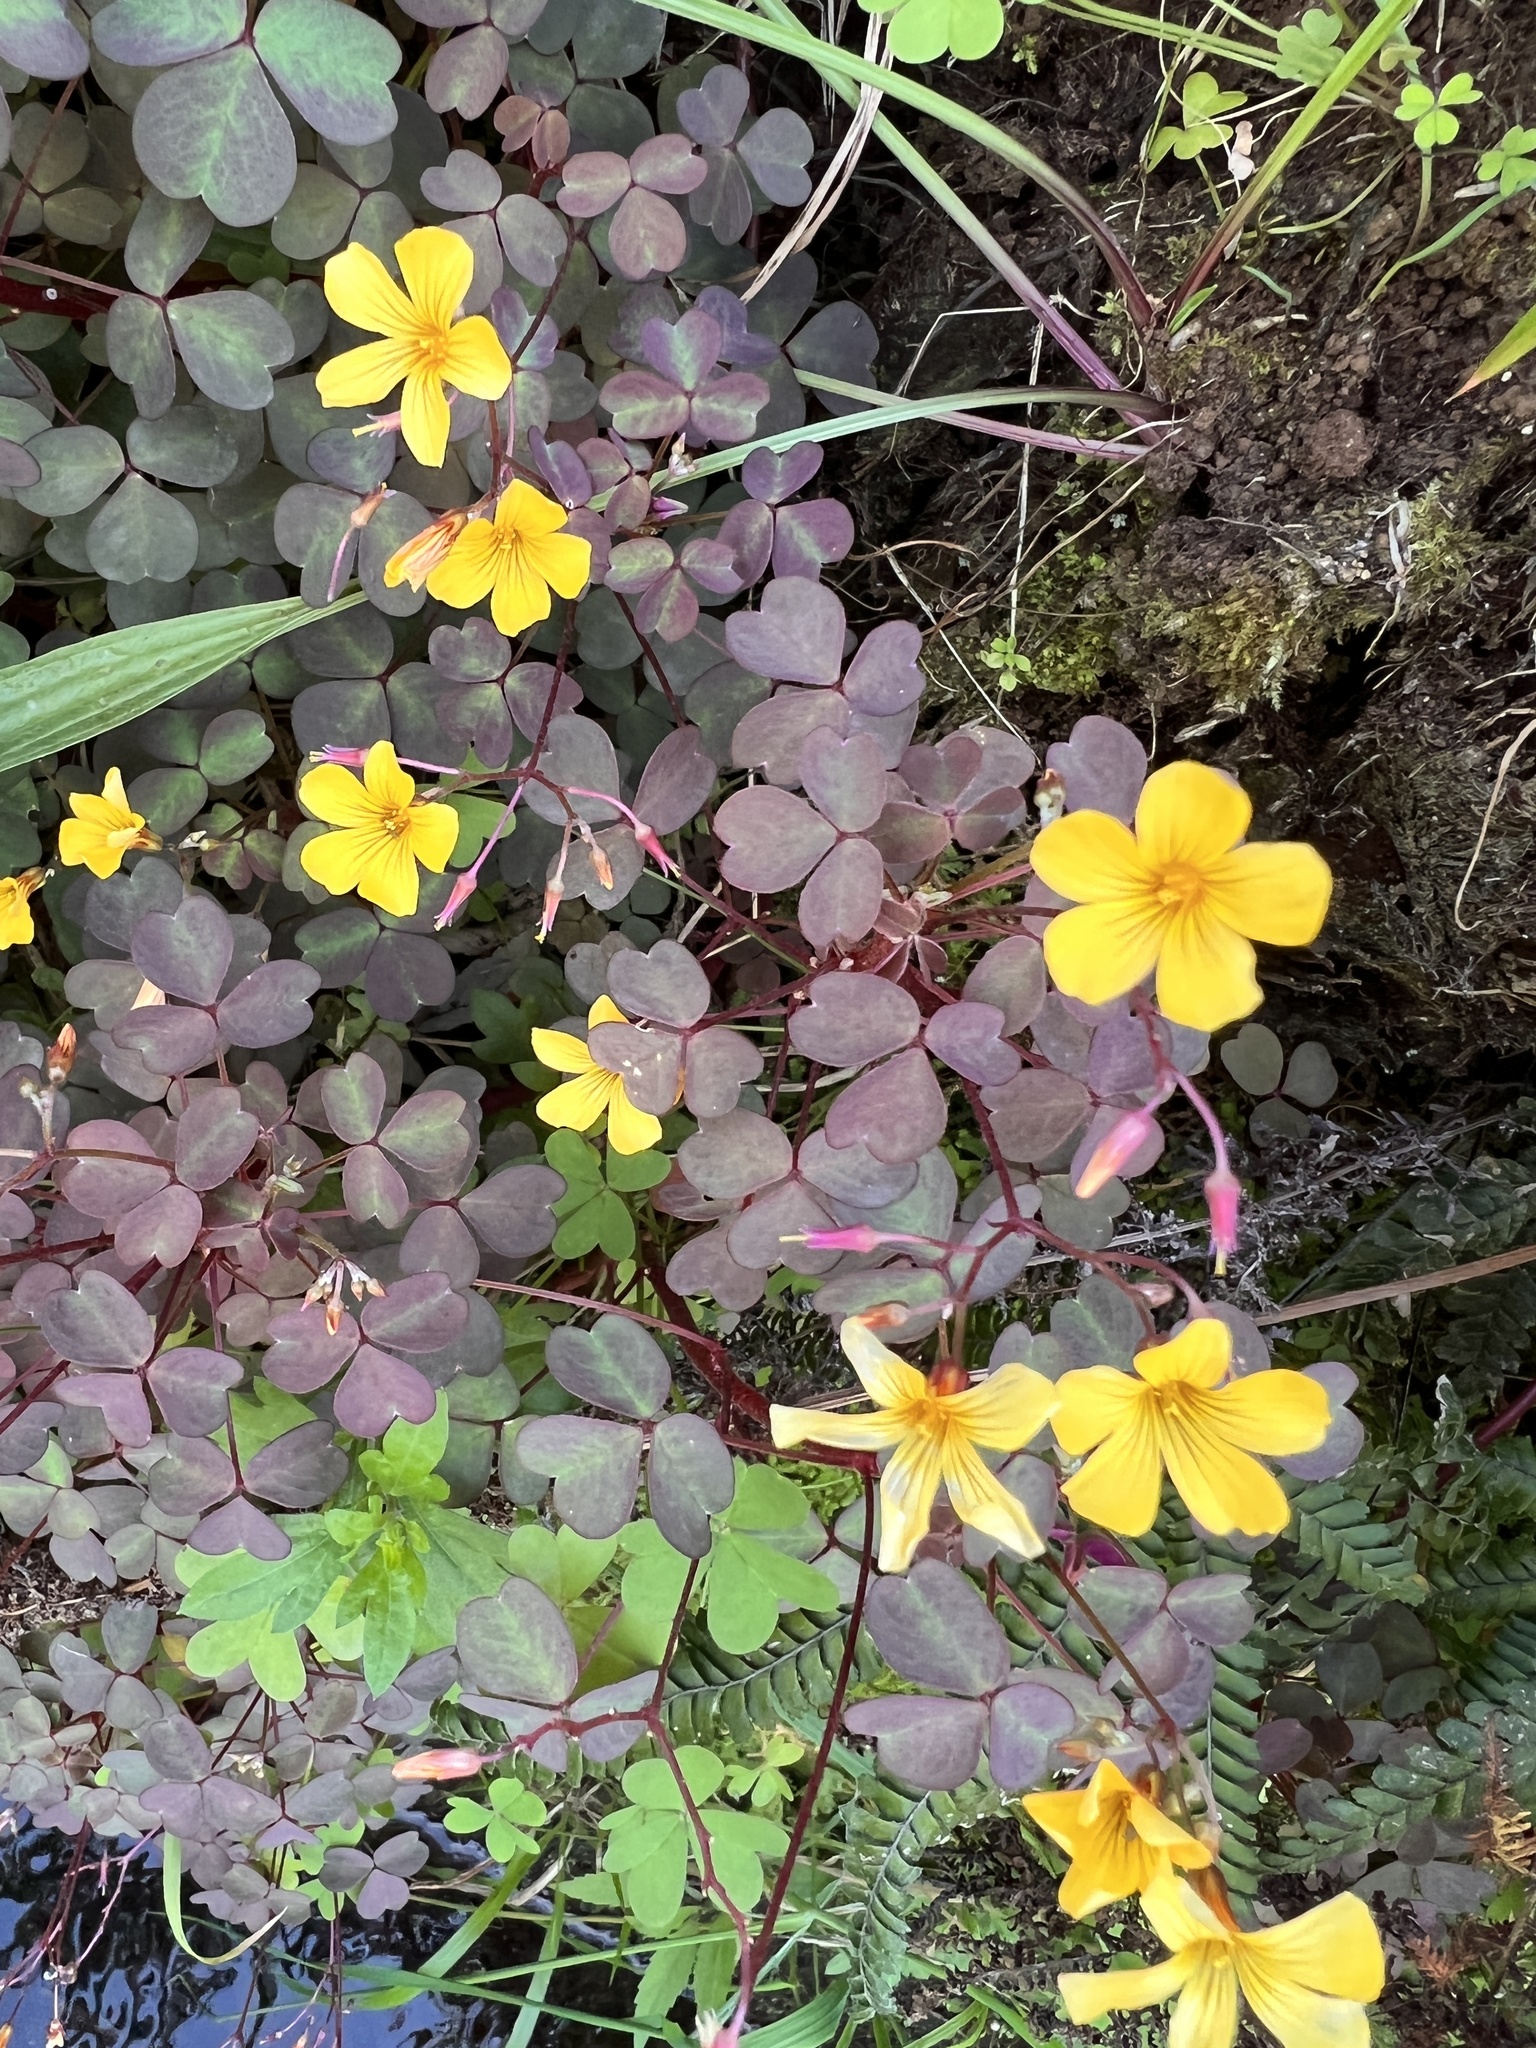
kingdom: Plantae
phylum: Tracheophyta
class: Magnoliopsida
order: Oxalidales
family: Oxalidaceae
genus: Oxalis
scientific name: Oxalis corniculata
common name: Procumbent yellow-sorrel
